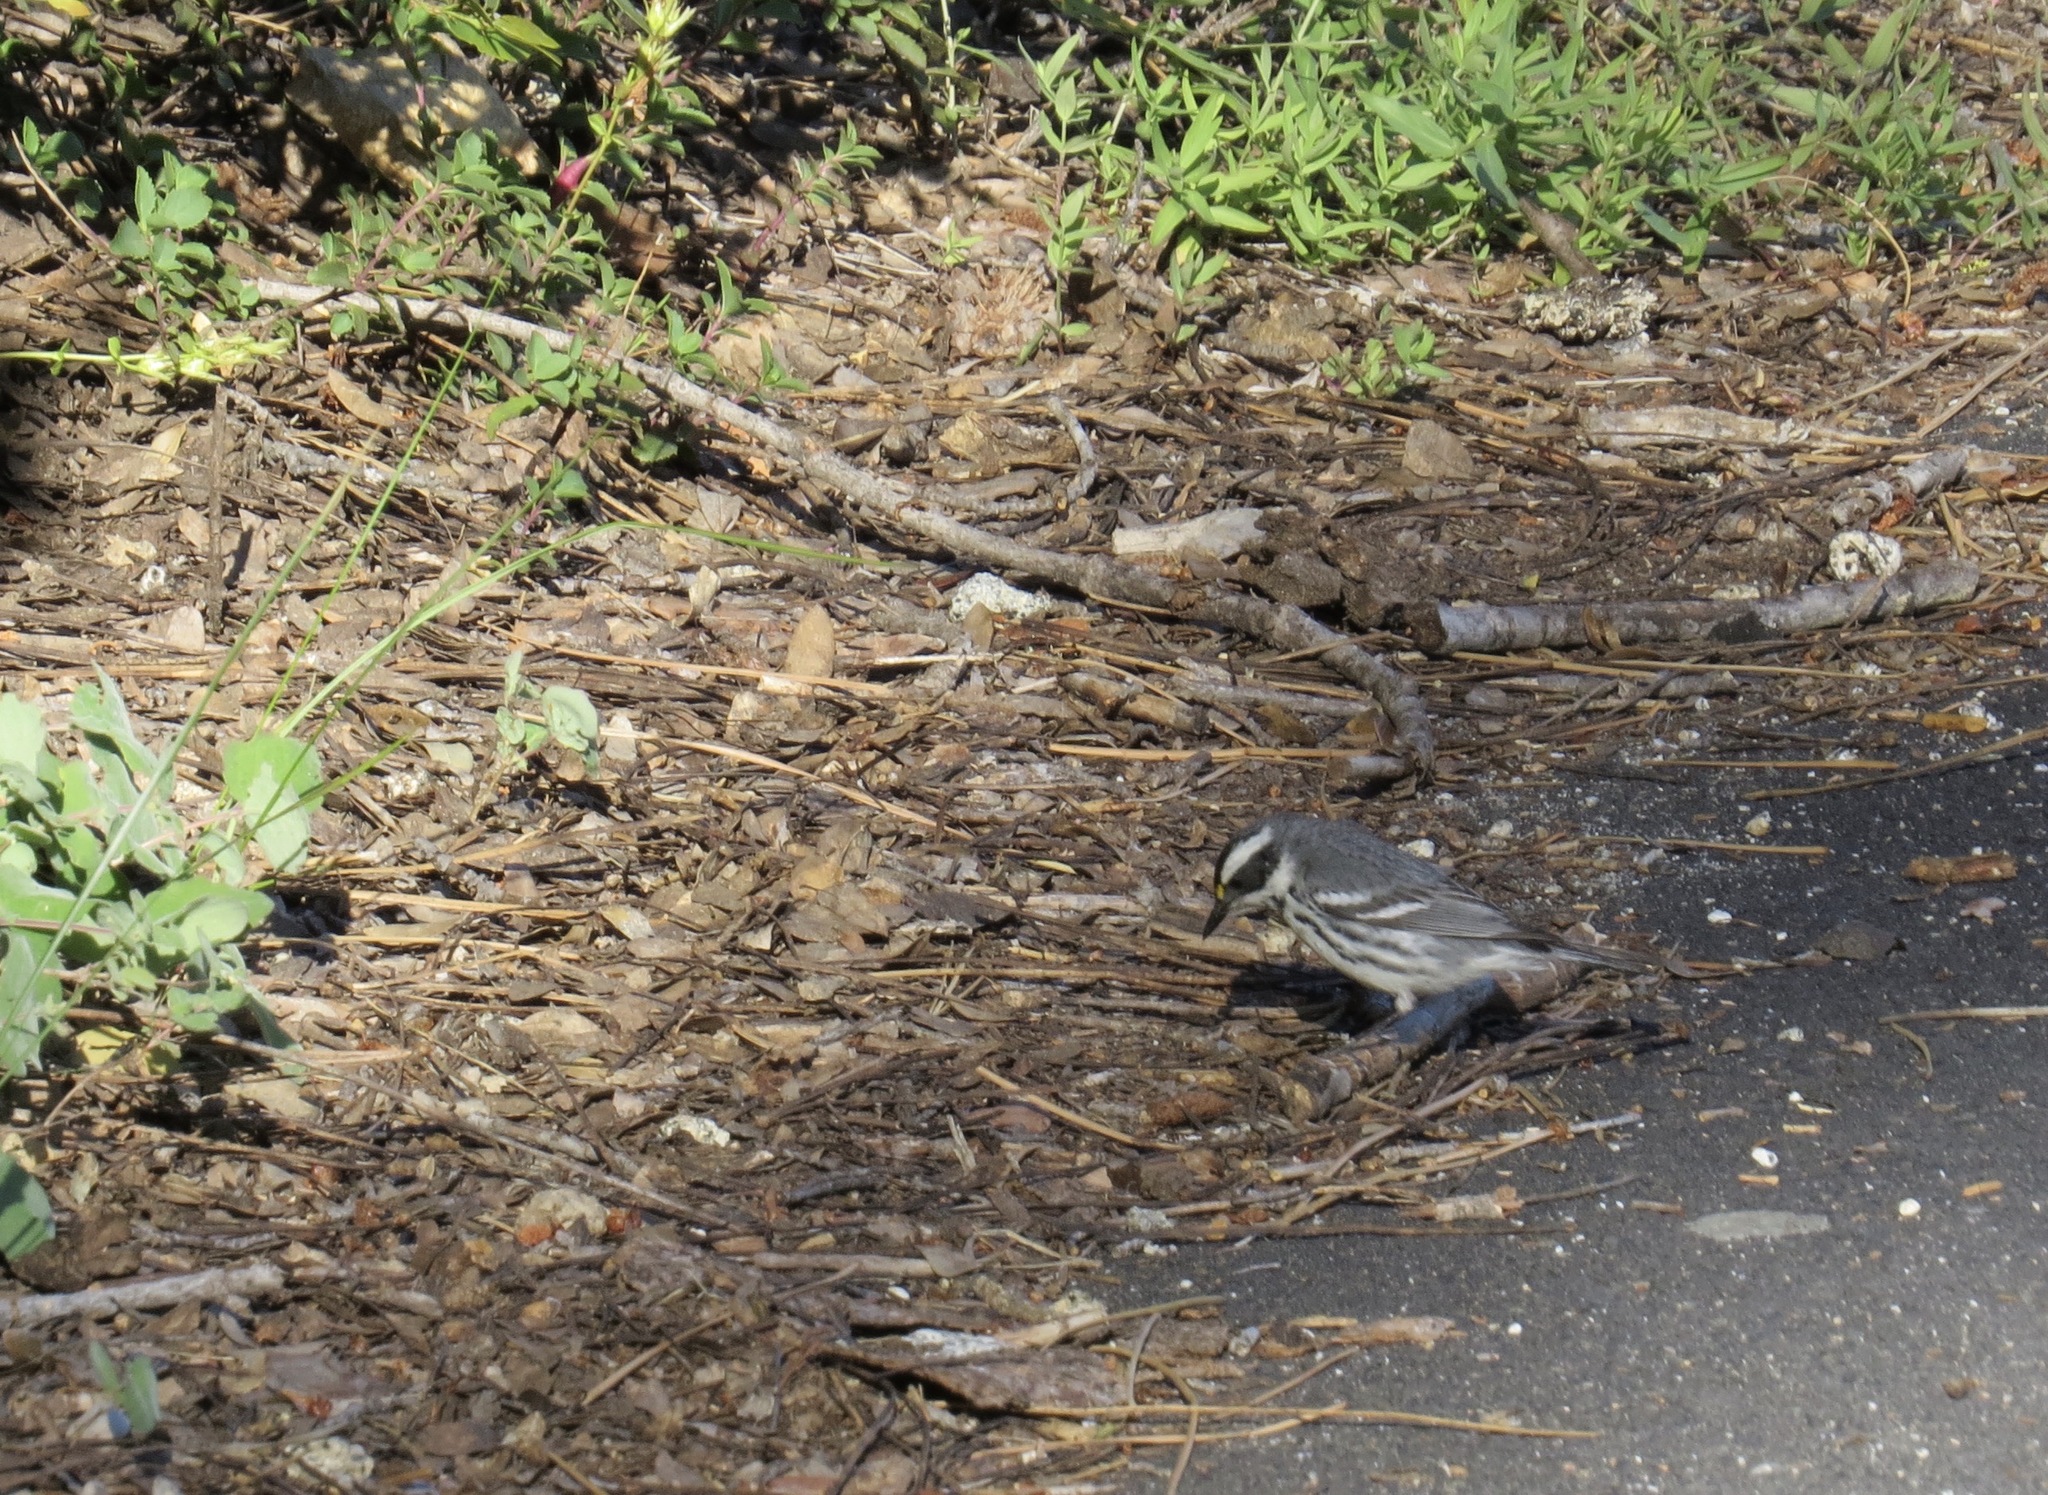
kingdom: Animalia
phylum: Chordata
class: Aves
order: Passeriformes
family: Parulidae
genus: Setophaga
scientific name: Setophaga nigrescens
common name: Black-throated gray warbler
